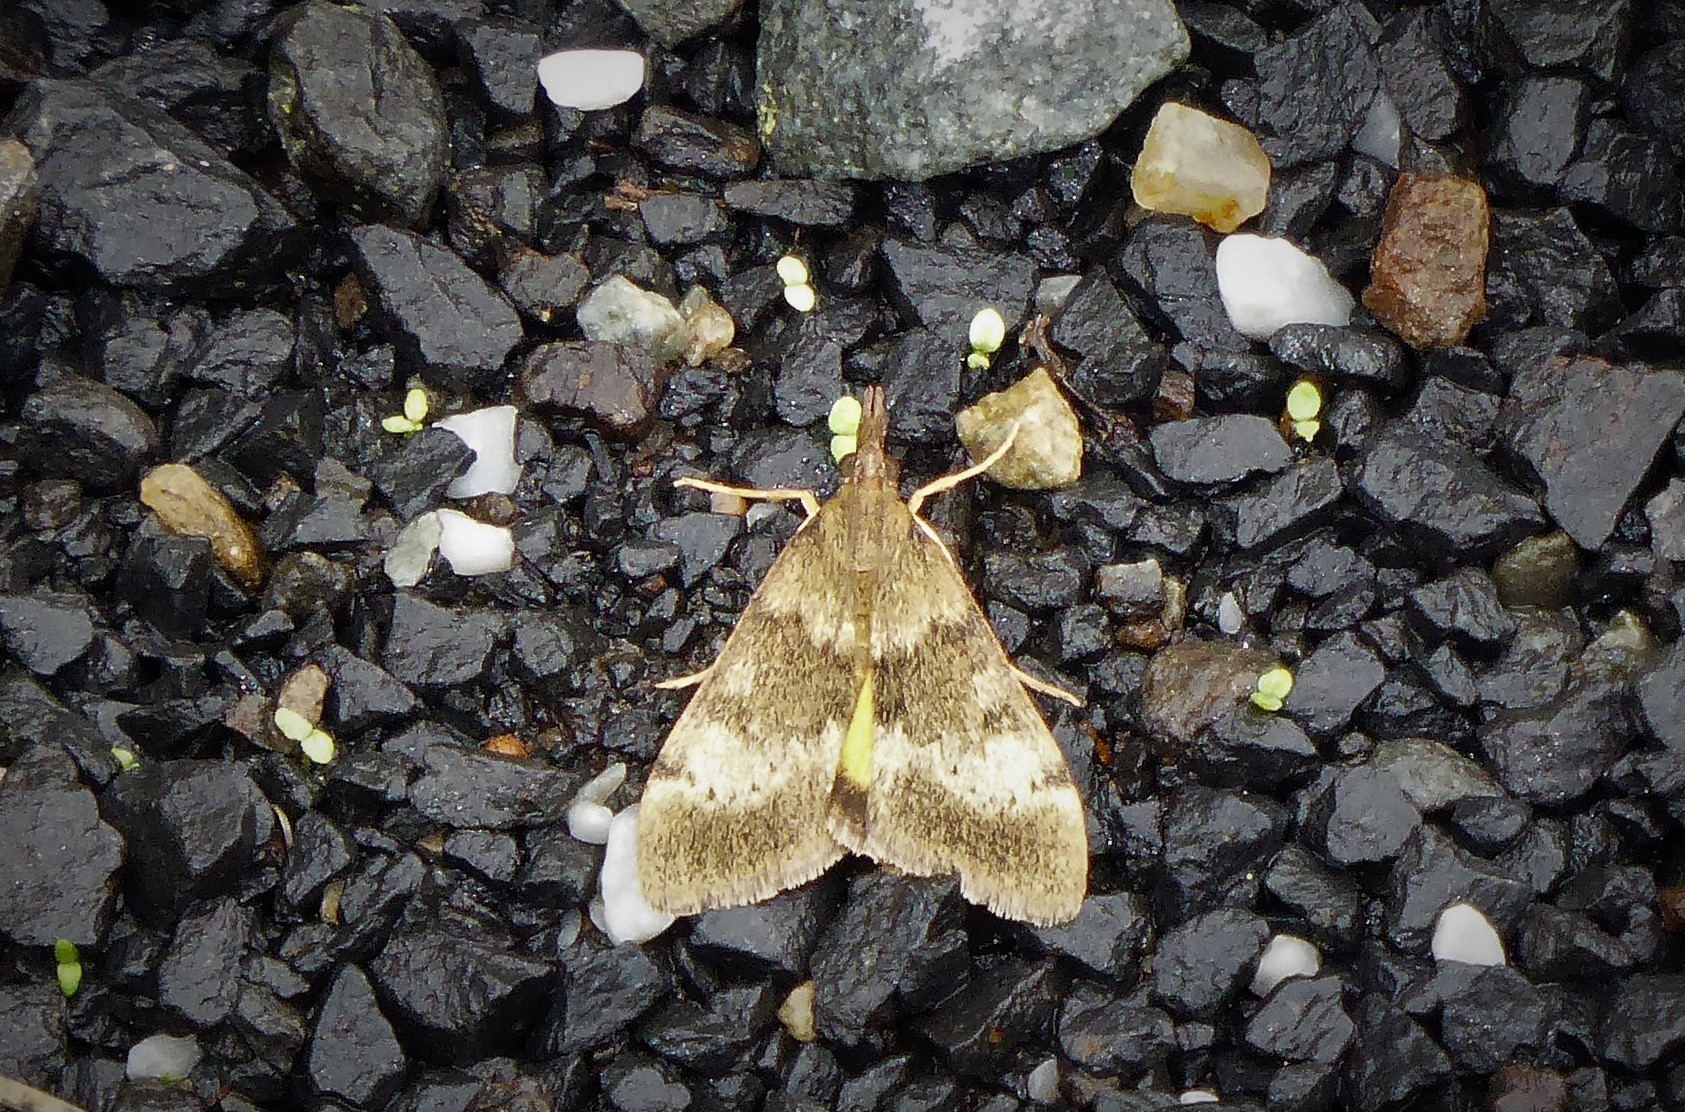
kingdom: Animalia
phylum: Arthropoda
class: Insecta
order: Lepidoptera
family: Crambidae
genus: Uresiphita
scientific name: Uresiphita
